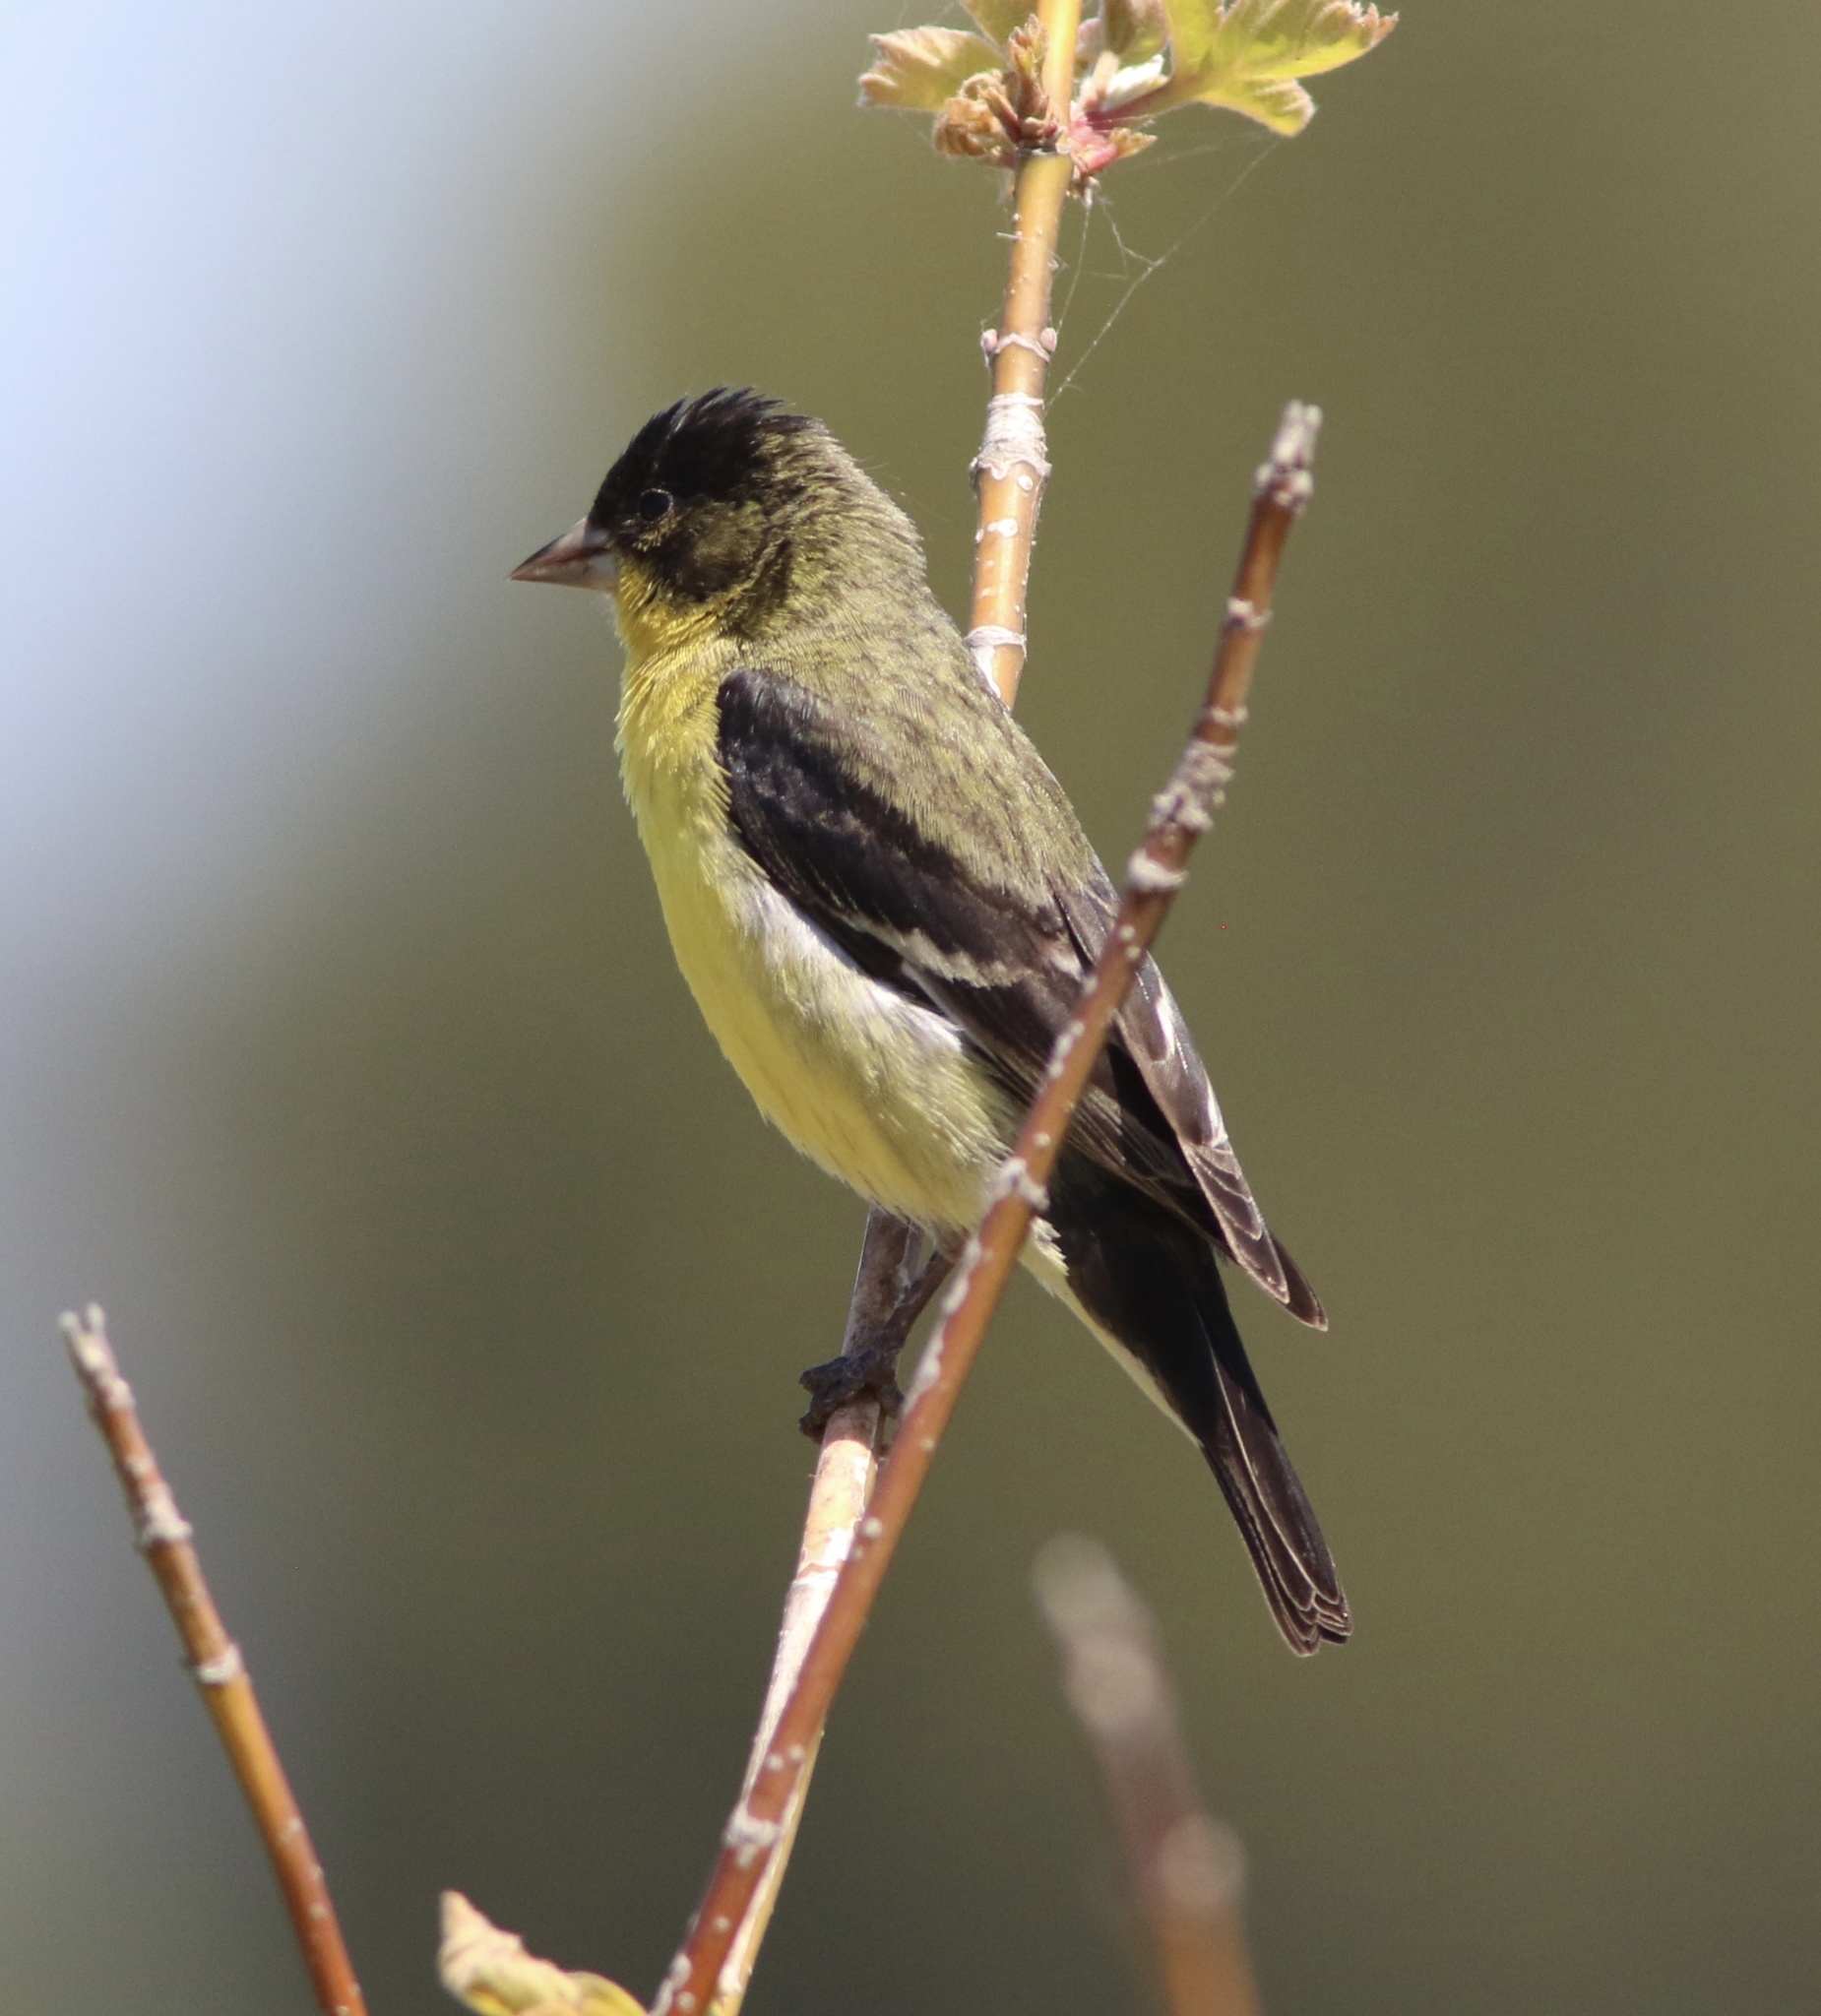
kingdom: Animalia
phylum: Chordata
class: Aves
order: Passeriformes
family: Fringillidae
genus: Spinus
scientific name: Spinus psaltria
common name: Lesser goldfinch
